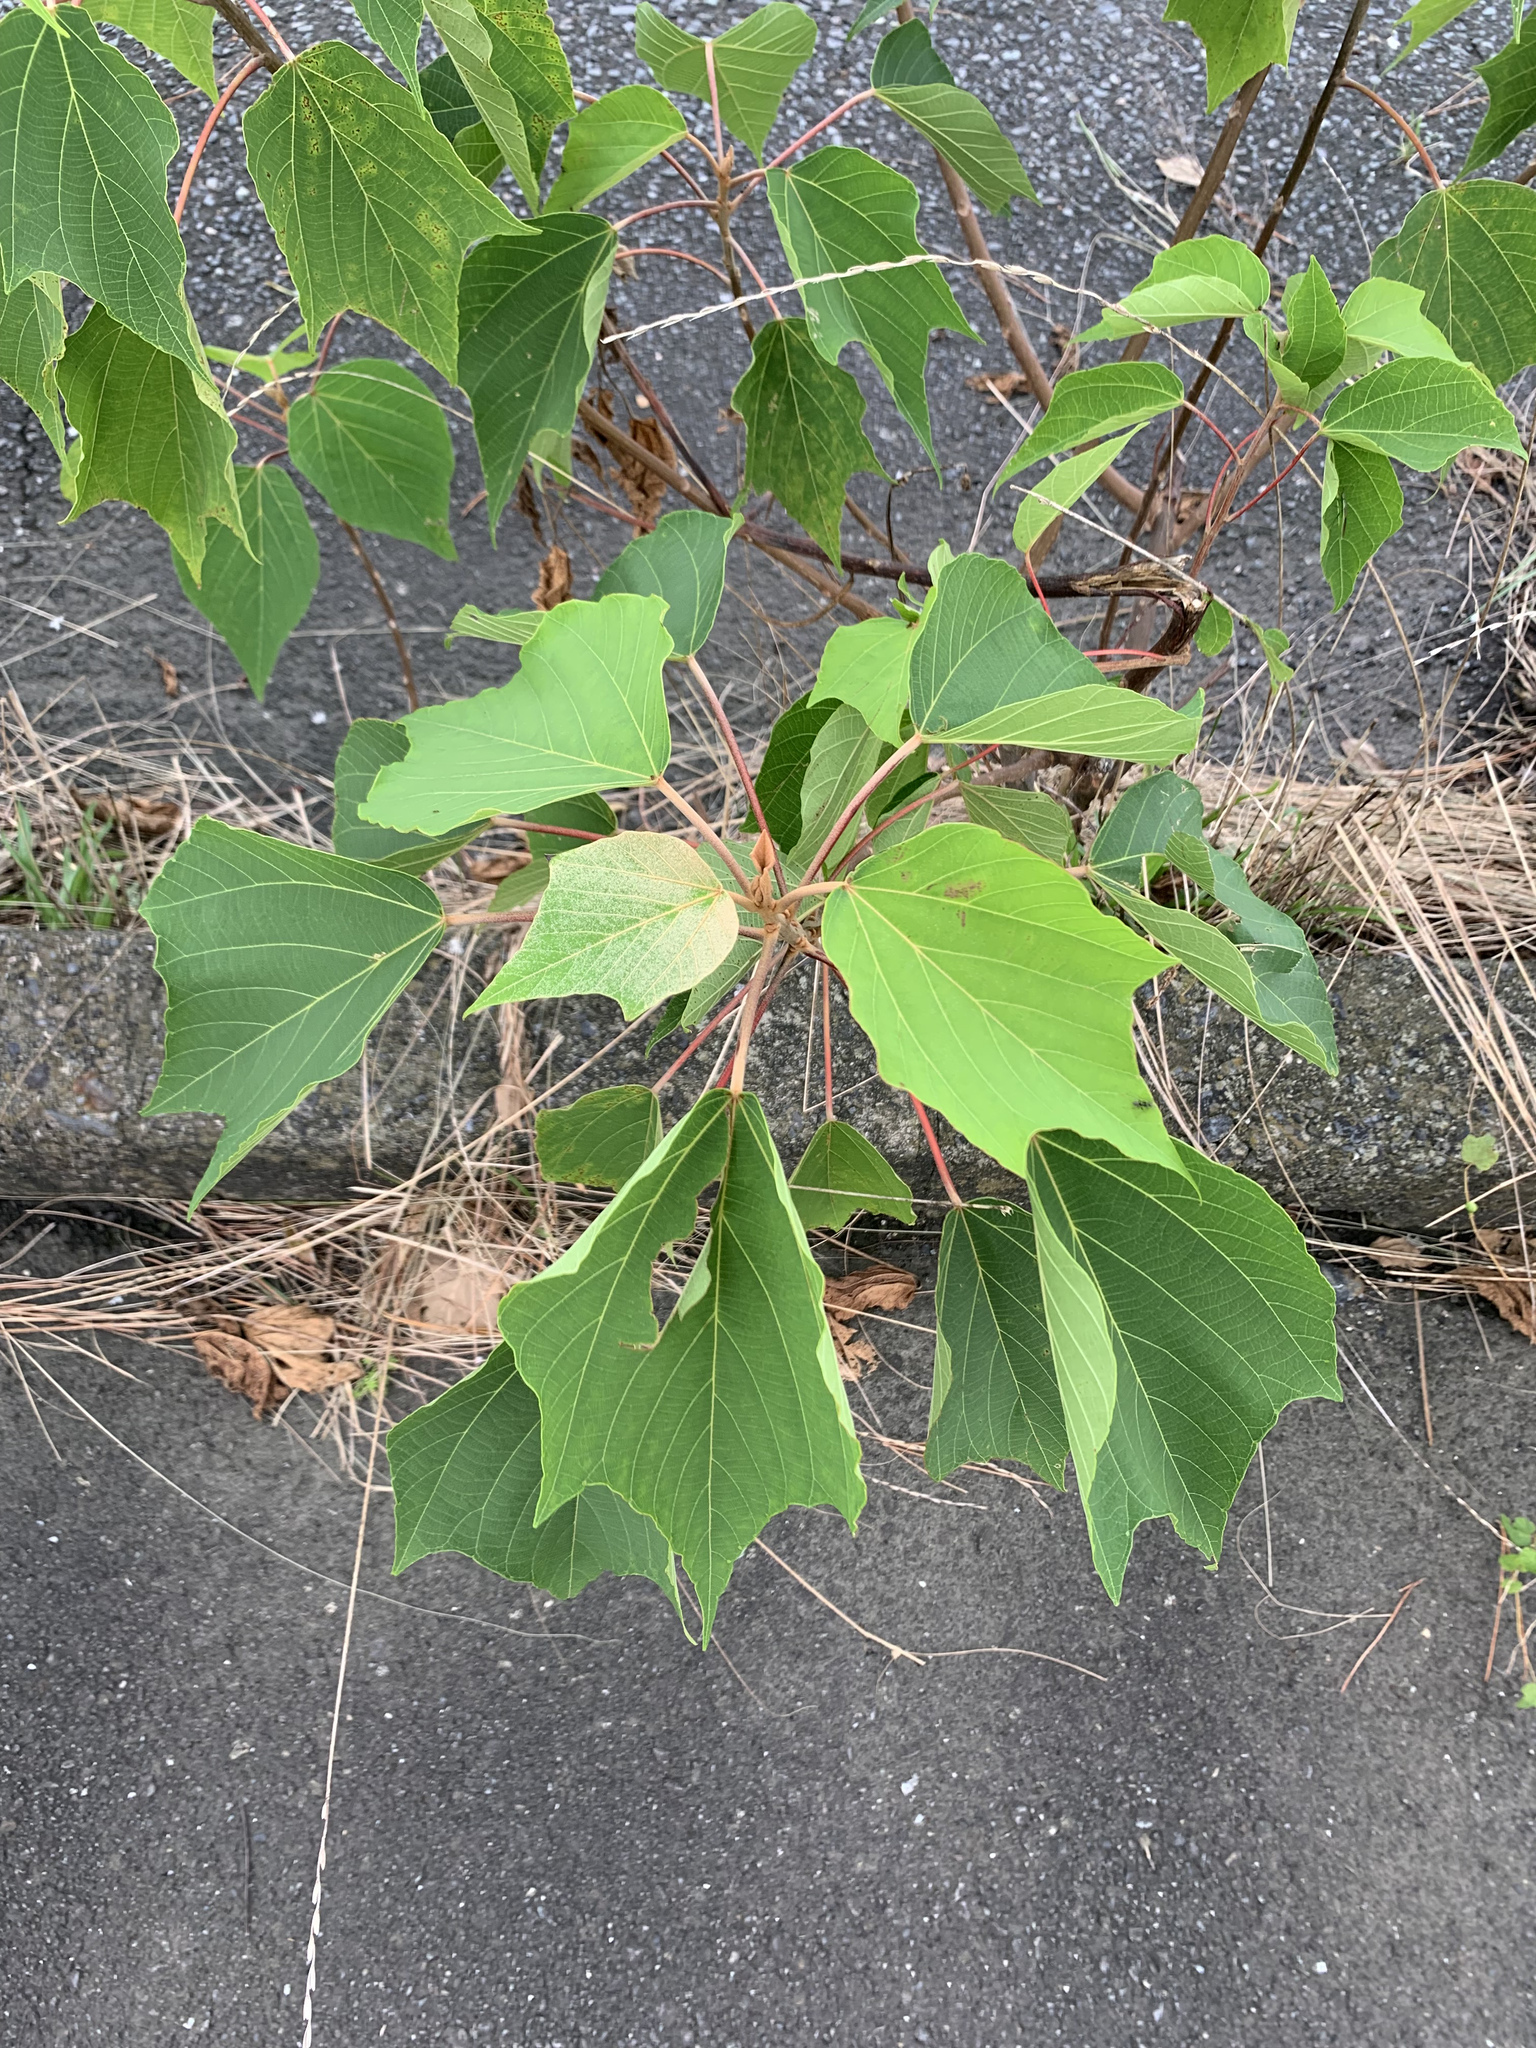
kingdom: Plantae
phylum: Tracheophyta
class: Magnoliopsida
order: Malpighiales
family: Euphorbiaceae
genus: Mallotus
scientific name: Mallotus japonicus
